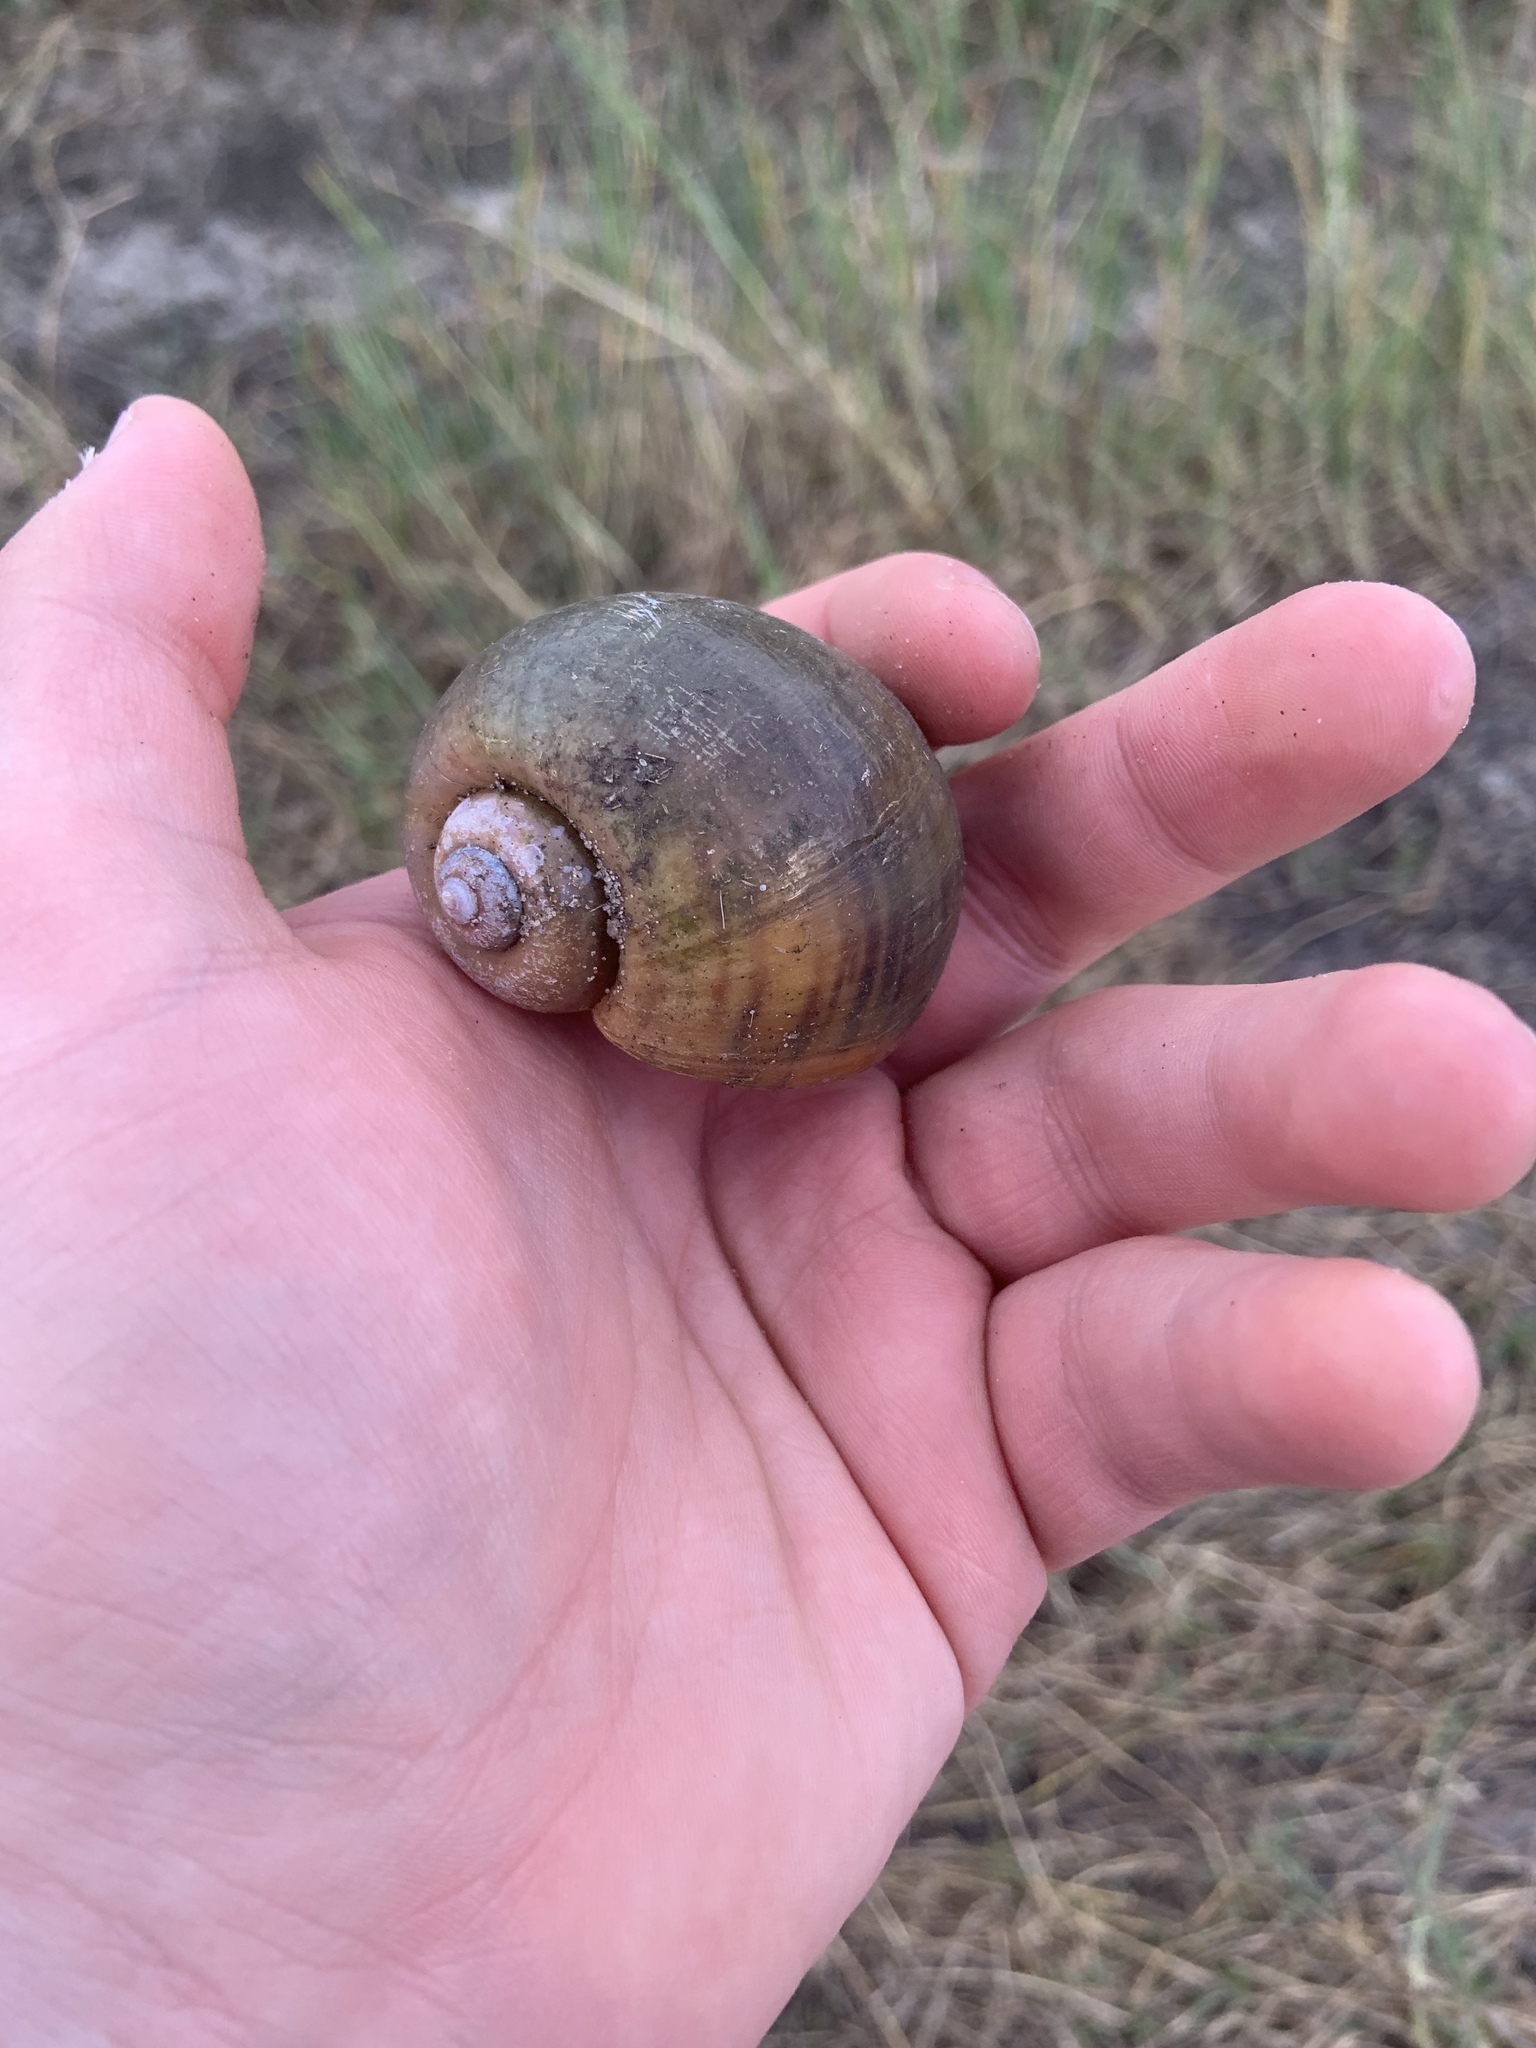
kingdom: Animalia
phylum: Mollusca
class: Gastropoda
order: Architaenioglossa
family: Ampullariidae
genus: Pomacea
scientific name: Pomacea maculata
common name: Giant applesnail
